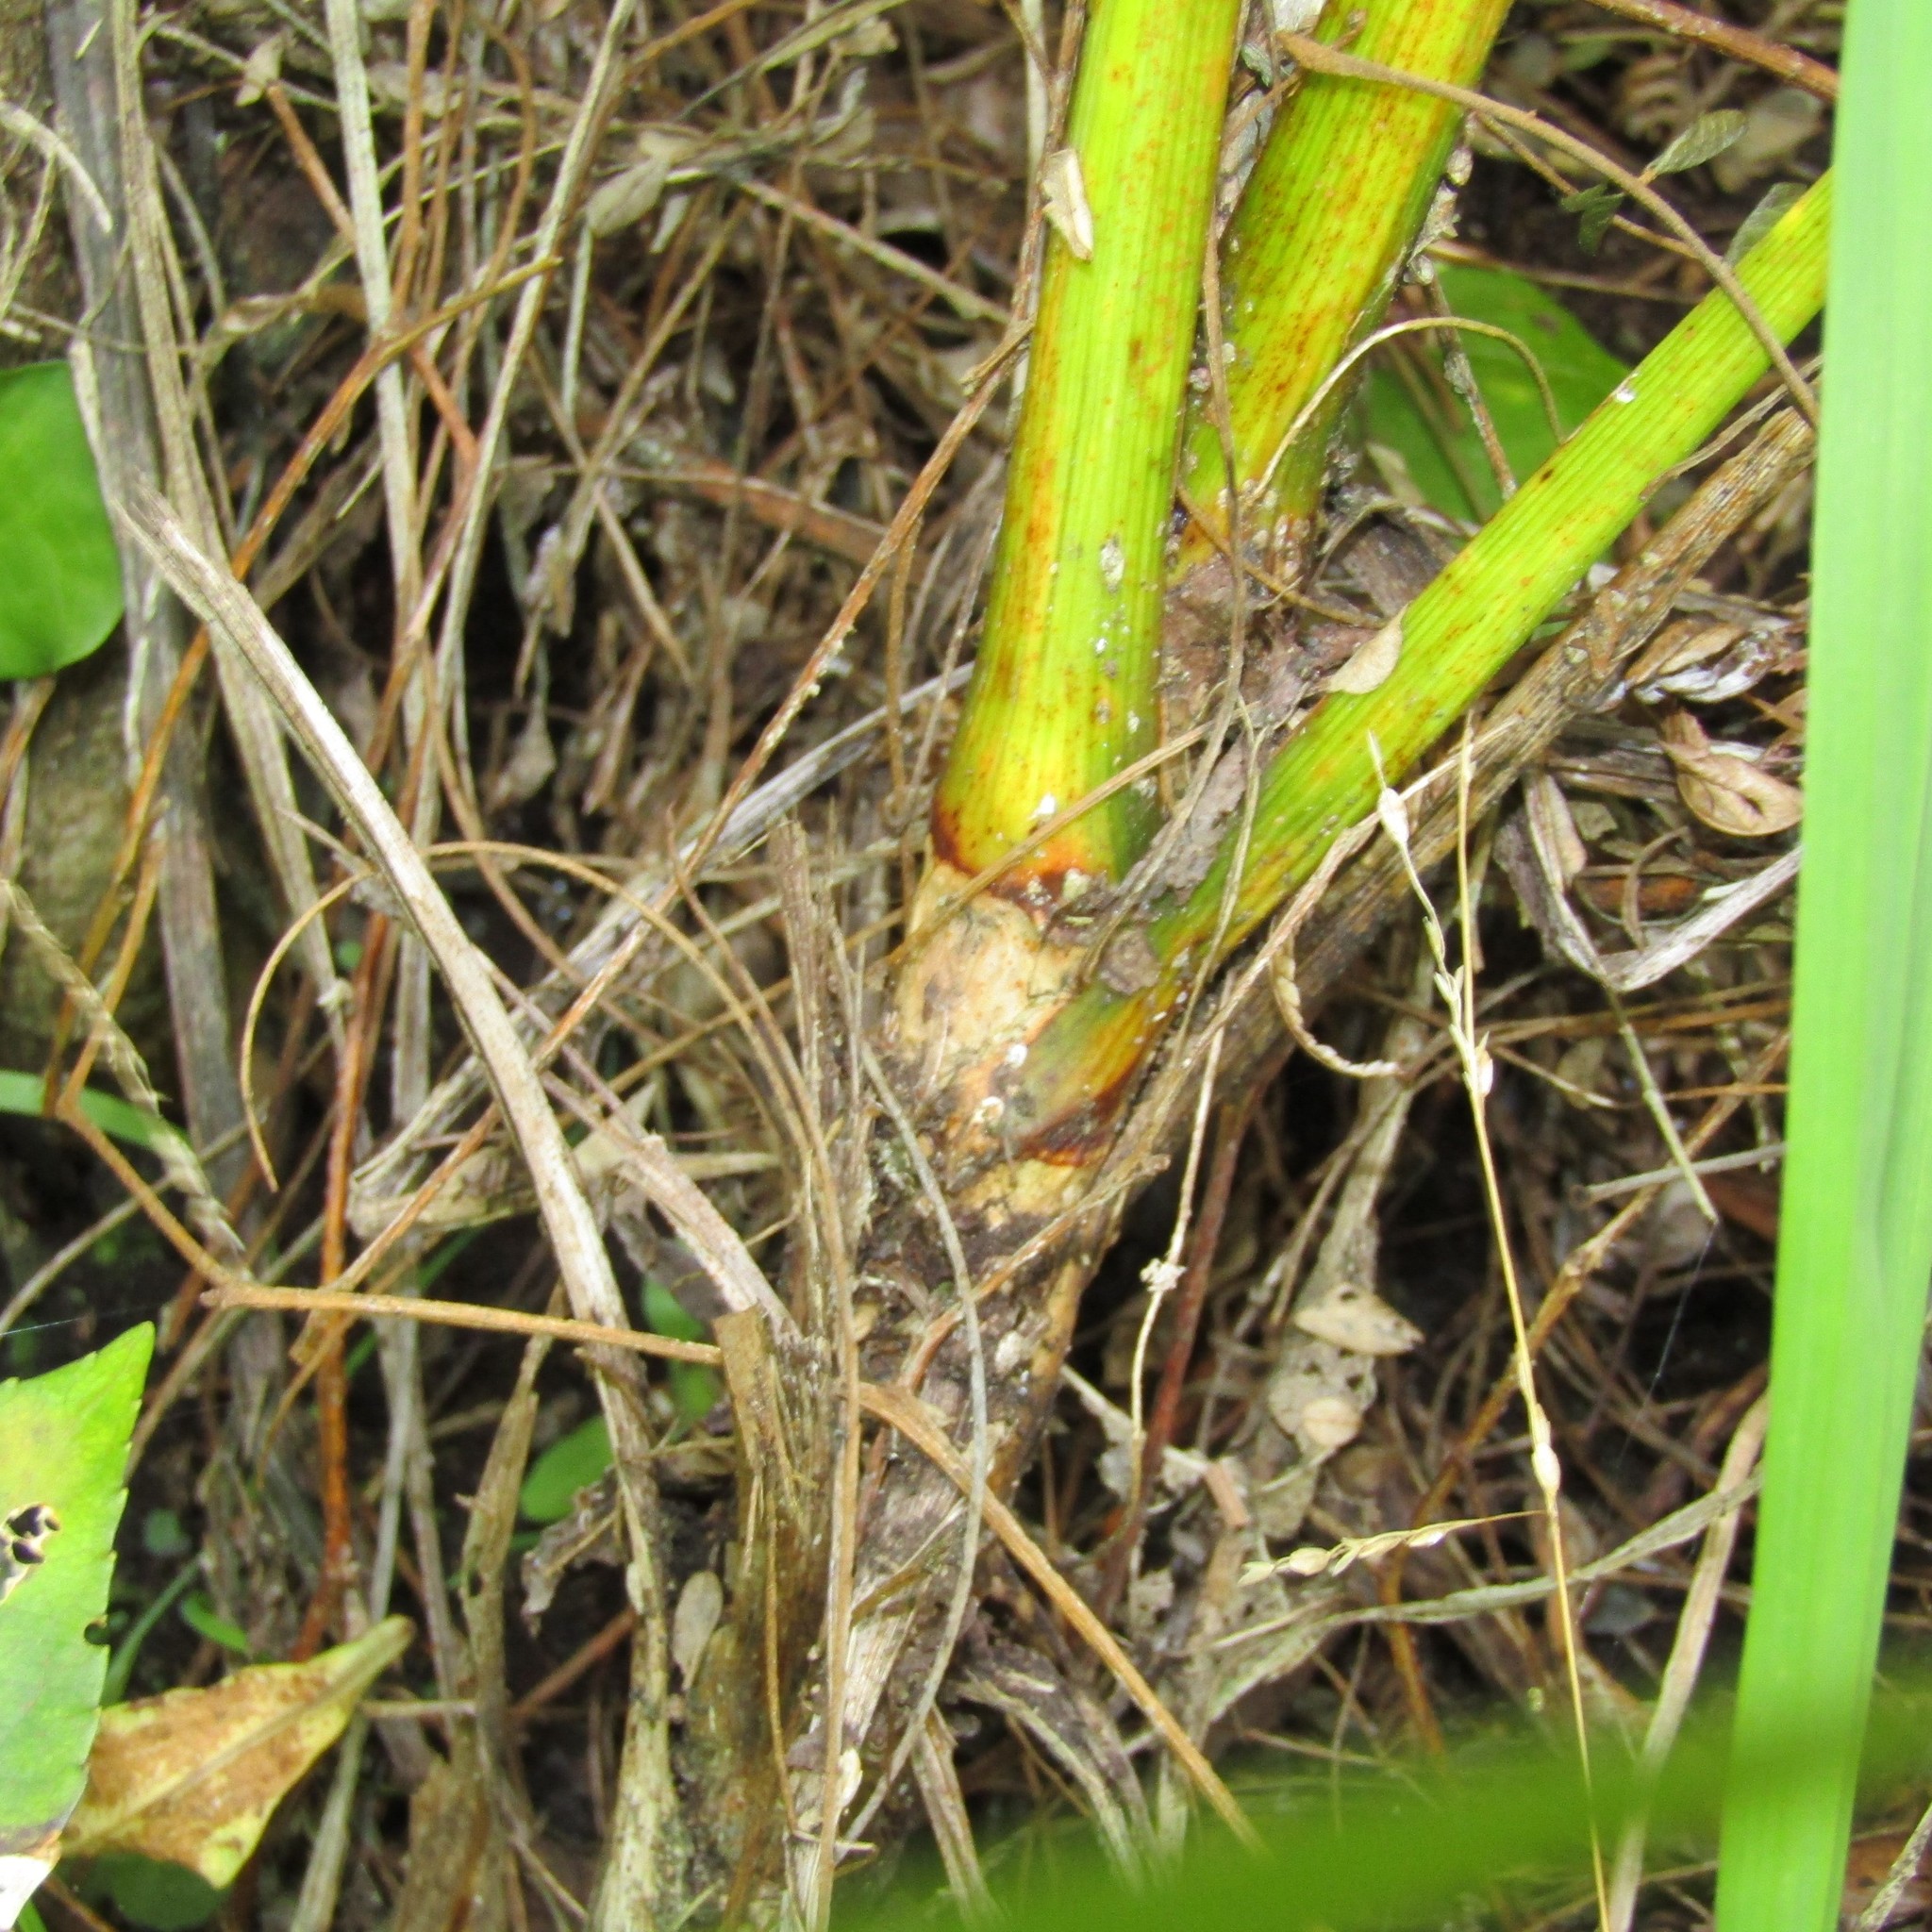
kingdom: Plantae
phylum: Tracheophyta
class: Liliopsida
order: Asparagales
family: Asparagaceae
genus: Cordyline
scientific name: Cordyline australis
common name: Cabbage-palm
